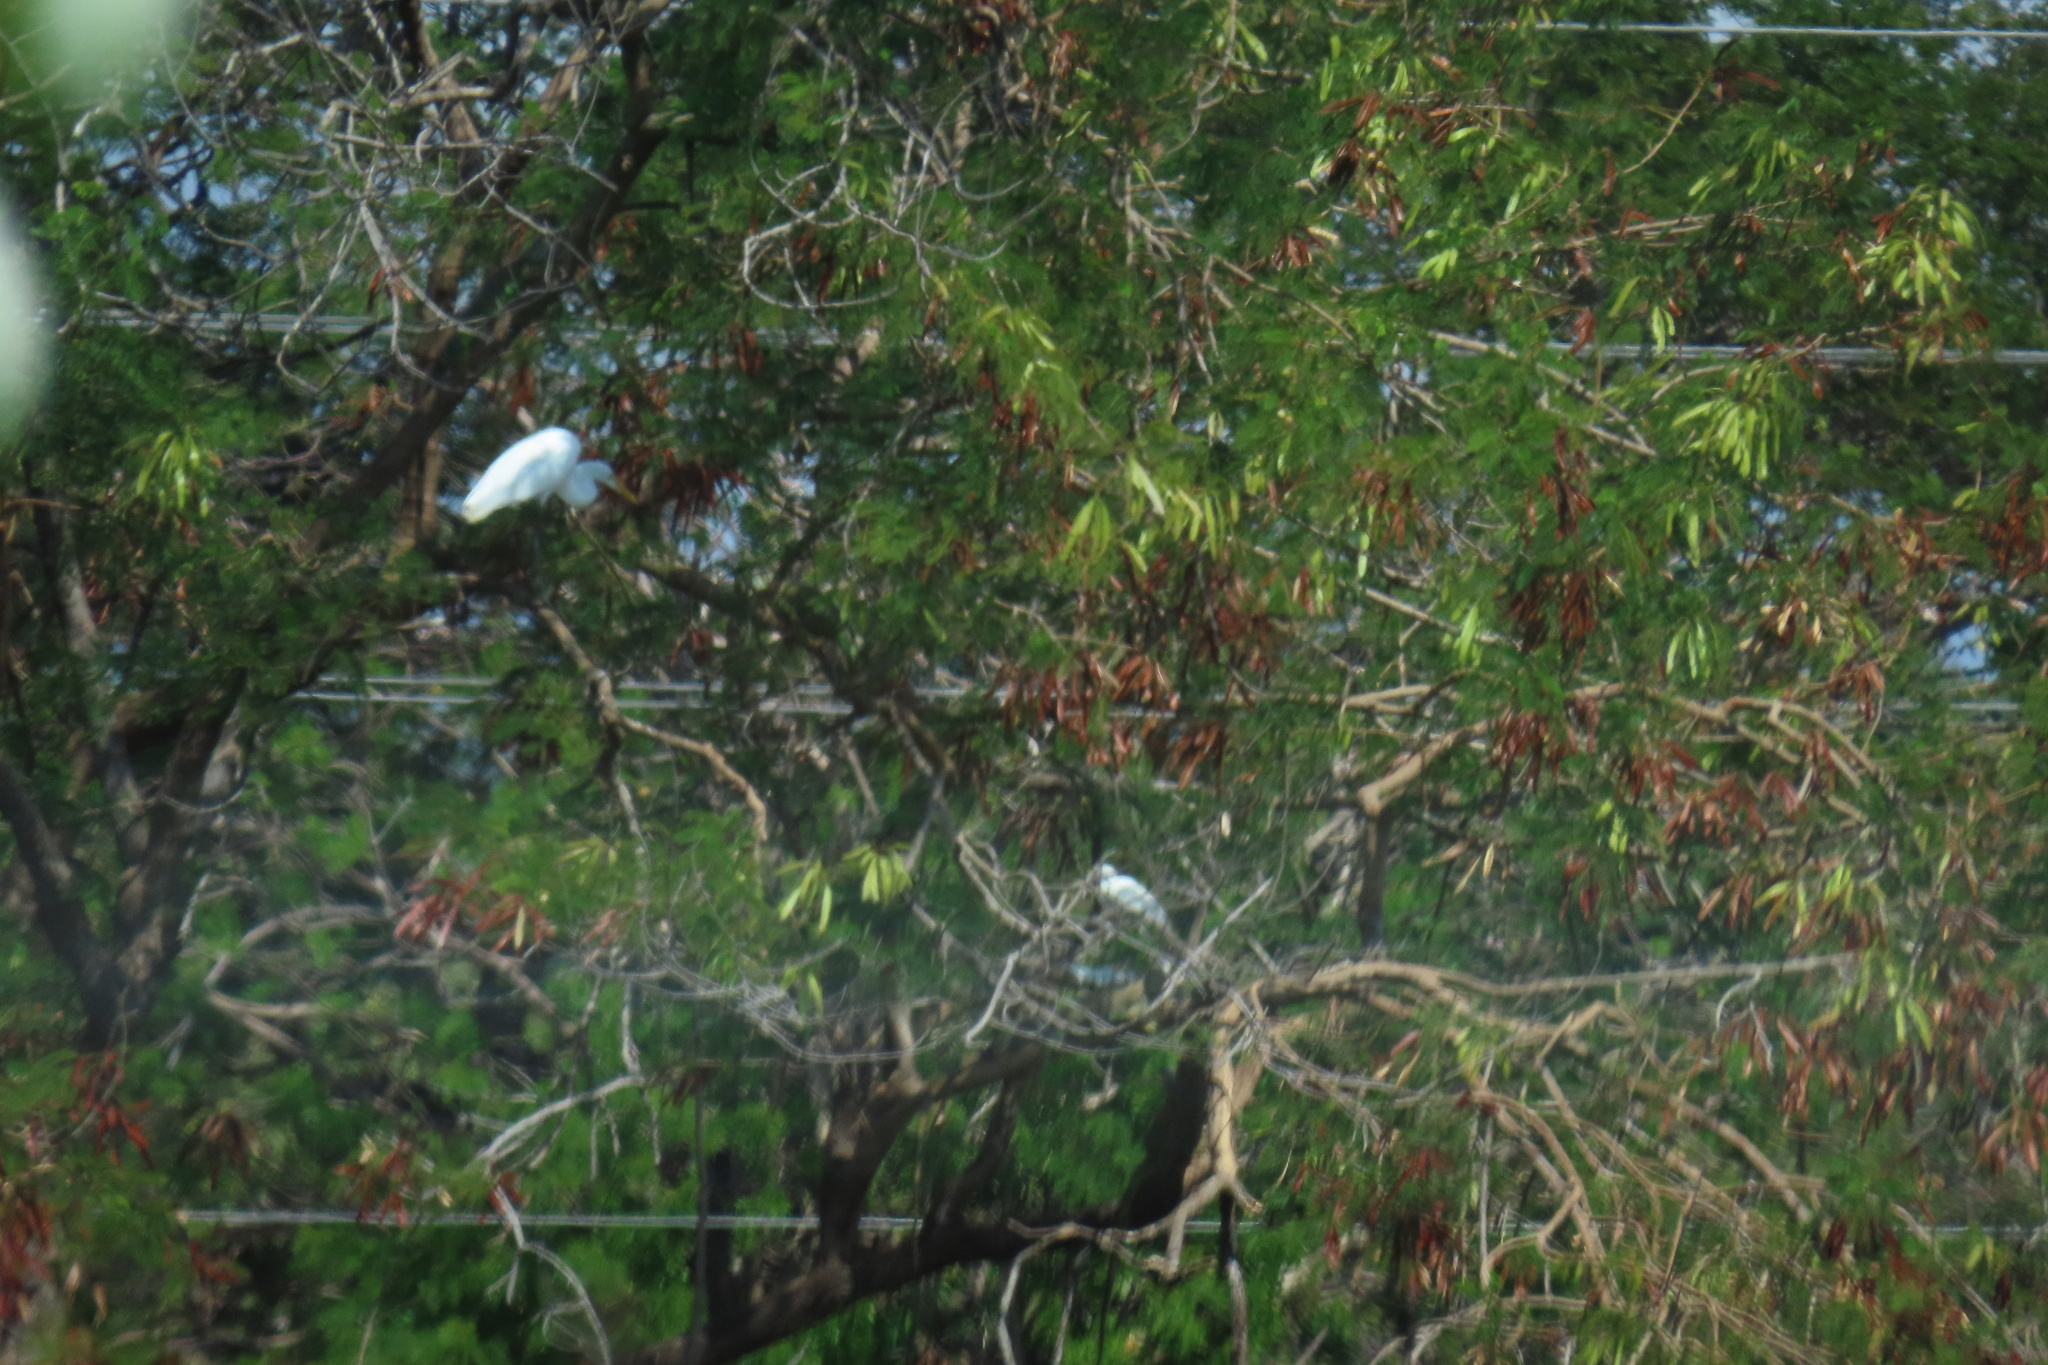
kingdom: Animalia
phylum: Chordata
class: Aves
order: Pelecaniformes
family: Ardeidae
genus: Ardea
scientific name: Ardea alba
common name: Great egret
